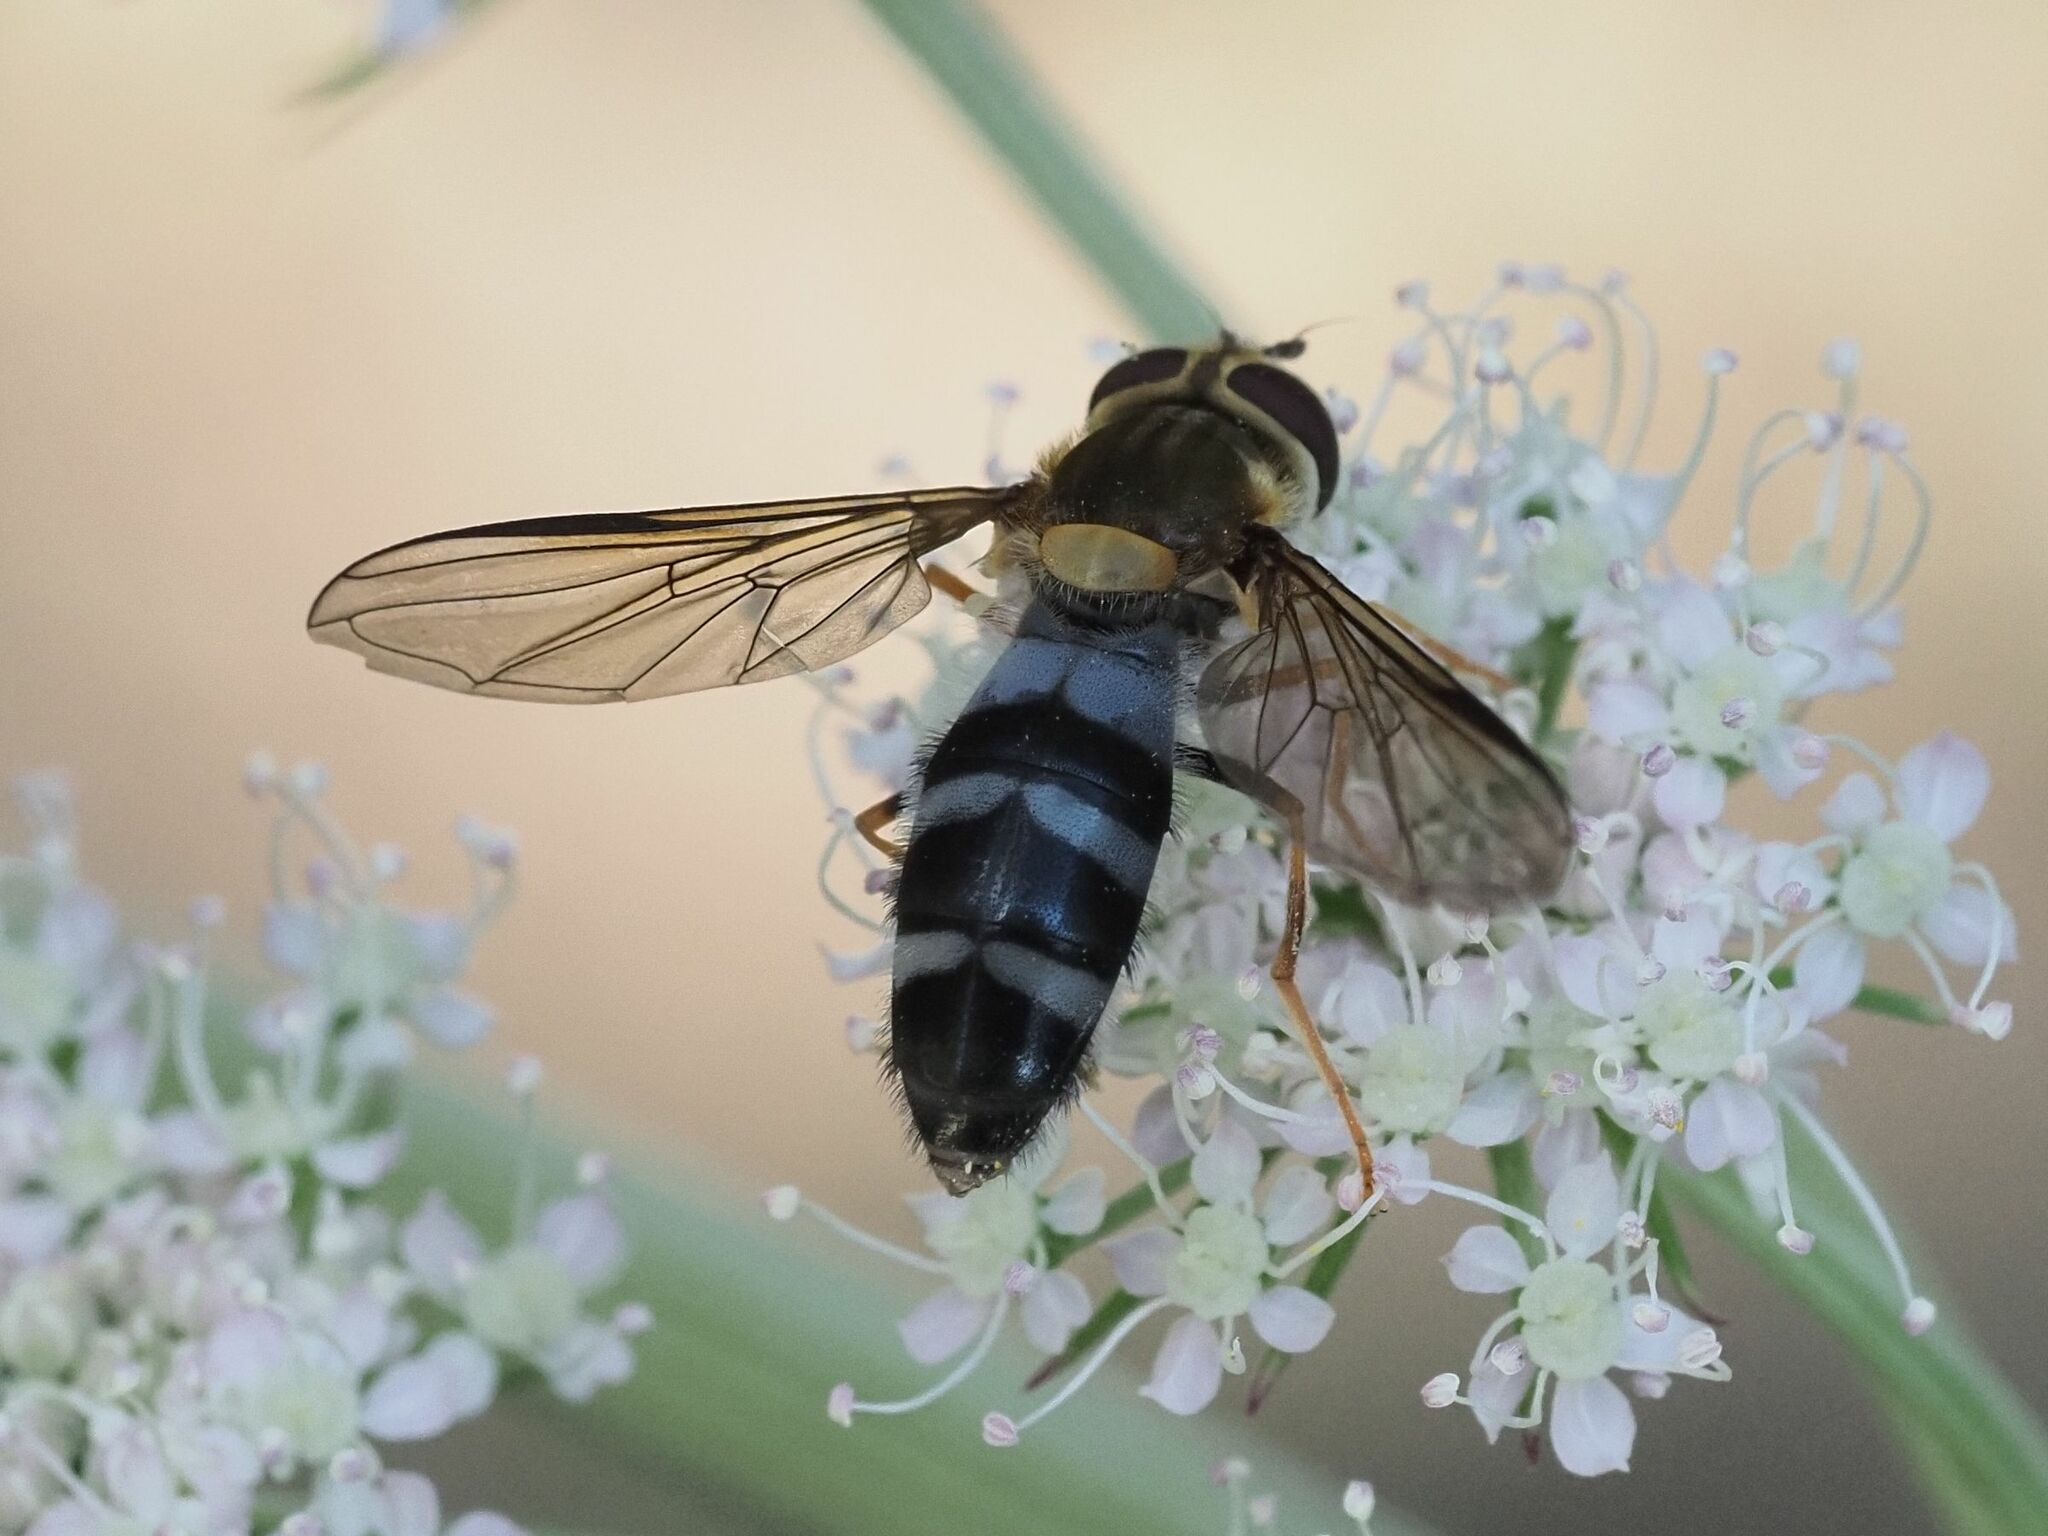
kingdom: Animalia
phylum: Arthropoda
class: Insecta
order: Diptera
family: Syrphidae
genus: Leucozona
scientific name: Leucozona glaucia
